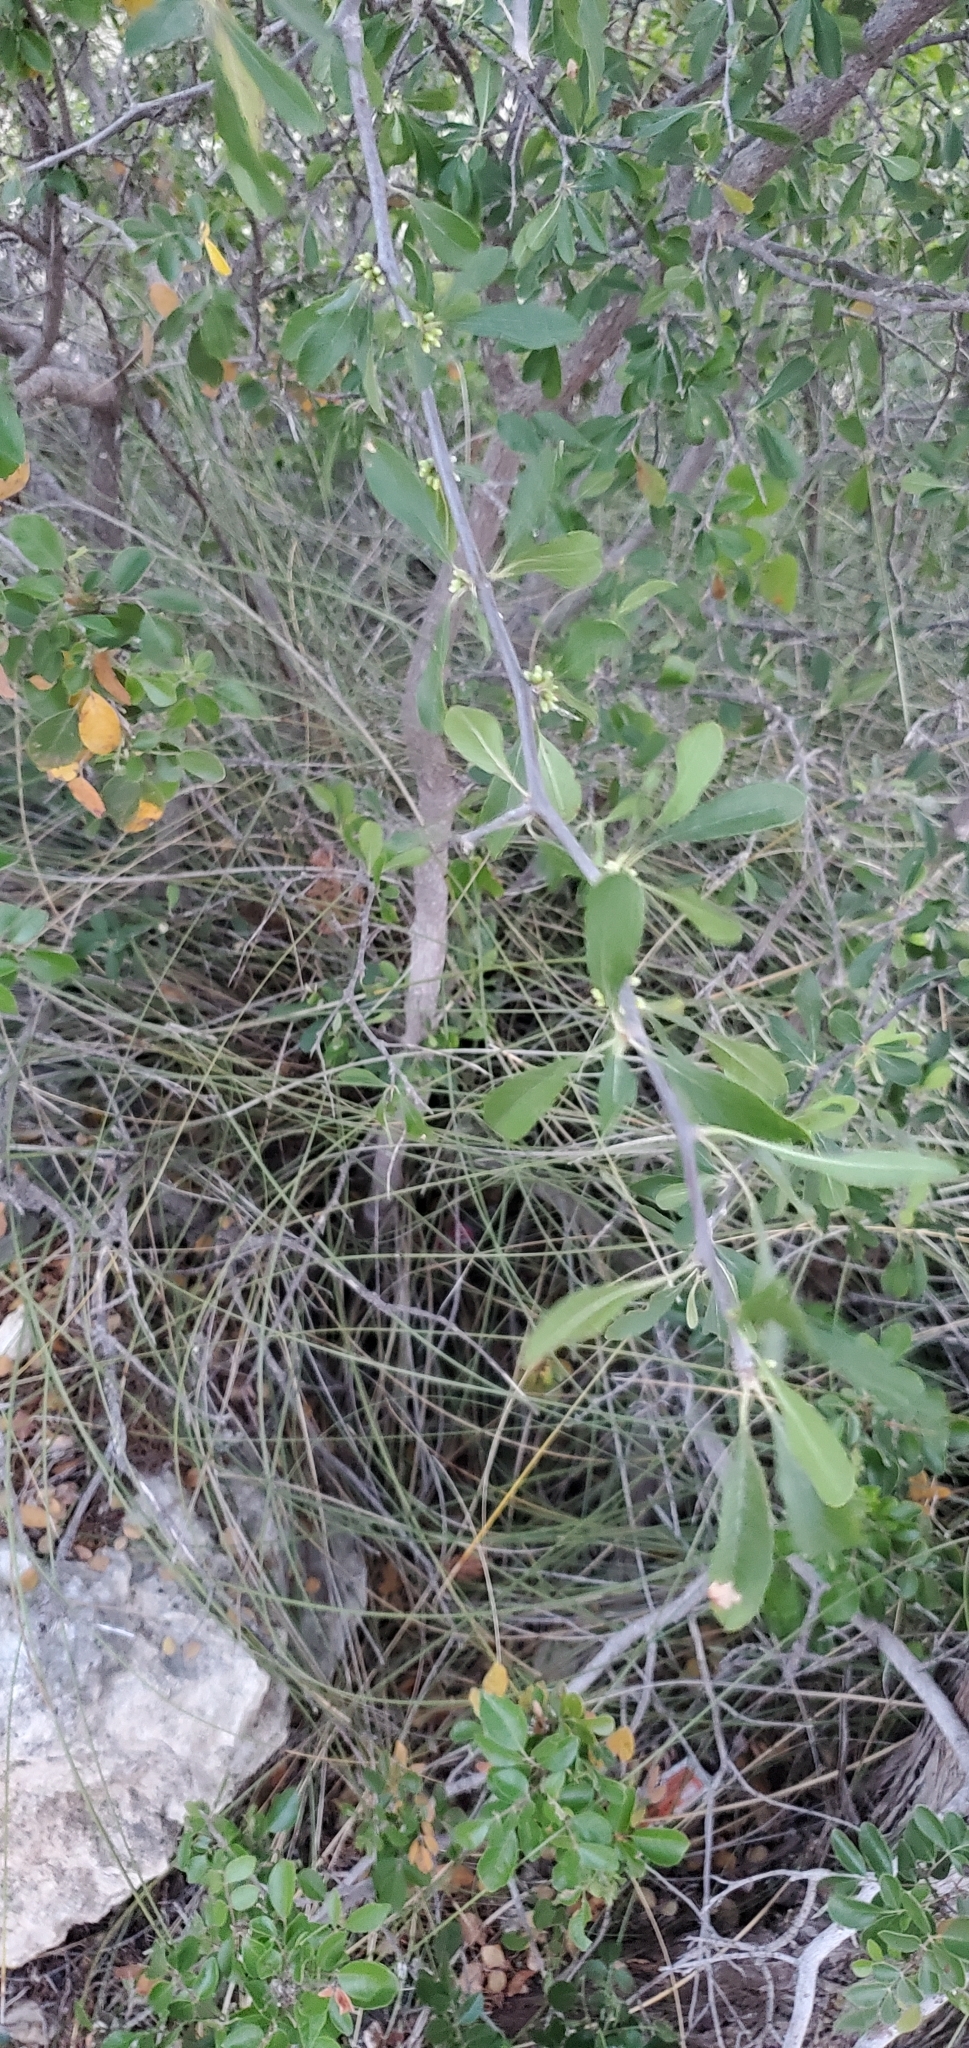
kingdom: Plantae
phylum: Tracheophyta
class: Magnoliopsida
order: Ericales
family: Sapotaceae
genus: Sideroxylon
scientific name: Sideroxylon lanuginosum
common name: Chittamwood
